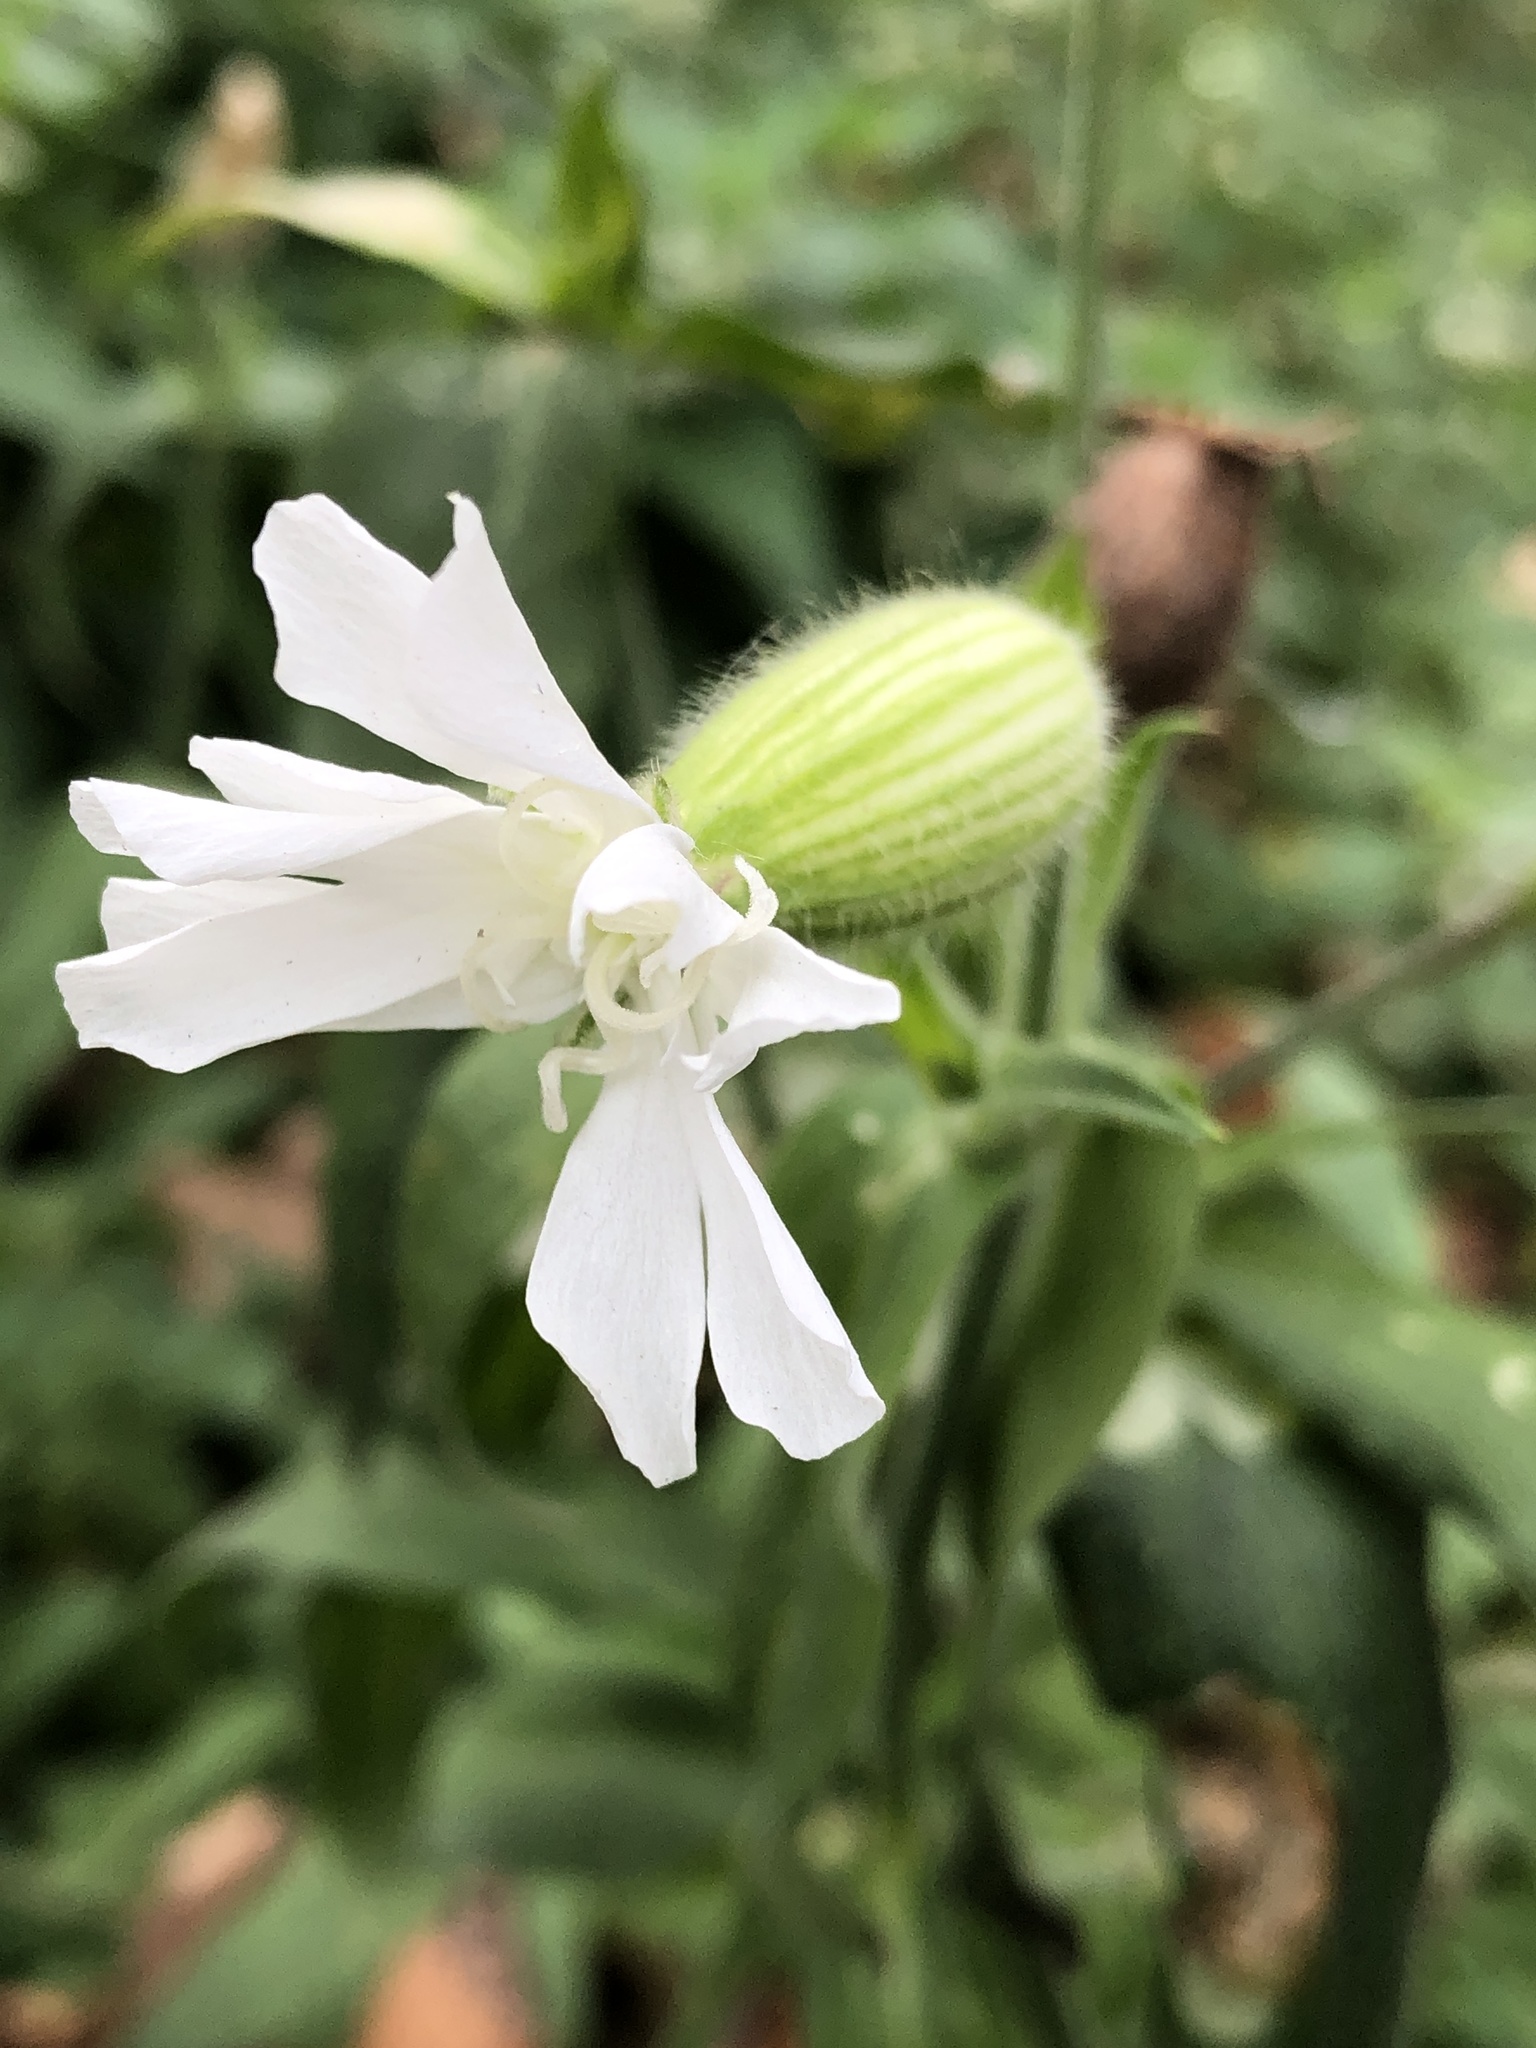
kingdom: Plantae
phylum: Tracheophyta
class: Magnoliopsida
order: Caryophyllales
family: Caryophyllaceae
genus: Silene
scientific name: Silene latifolia
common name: White campion
